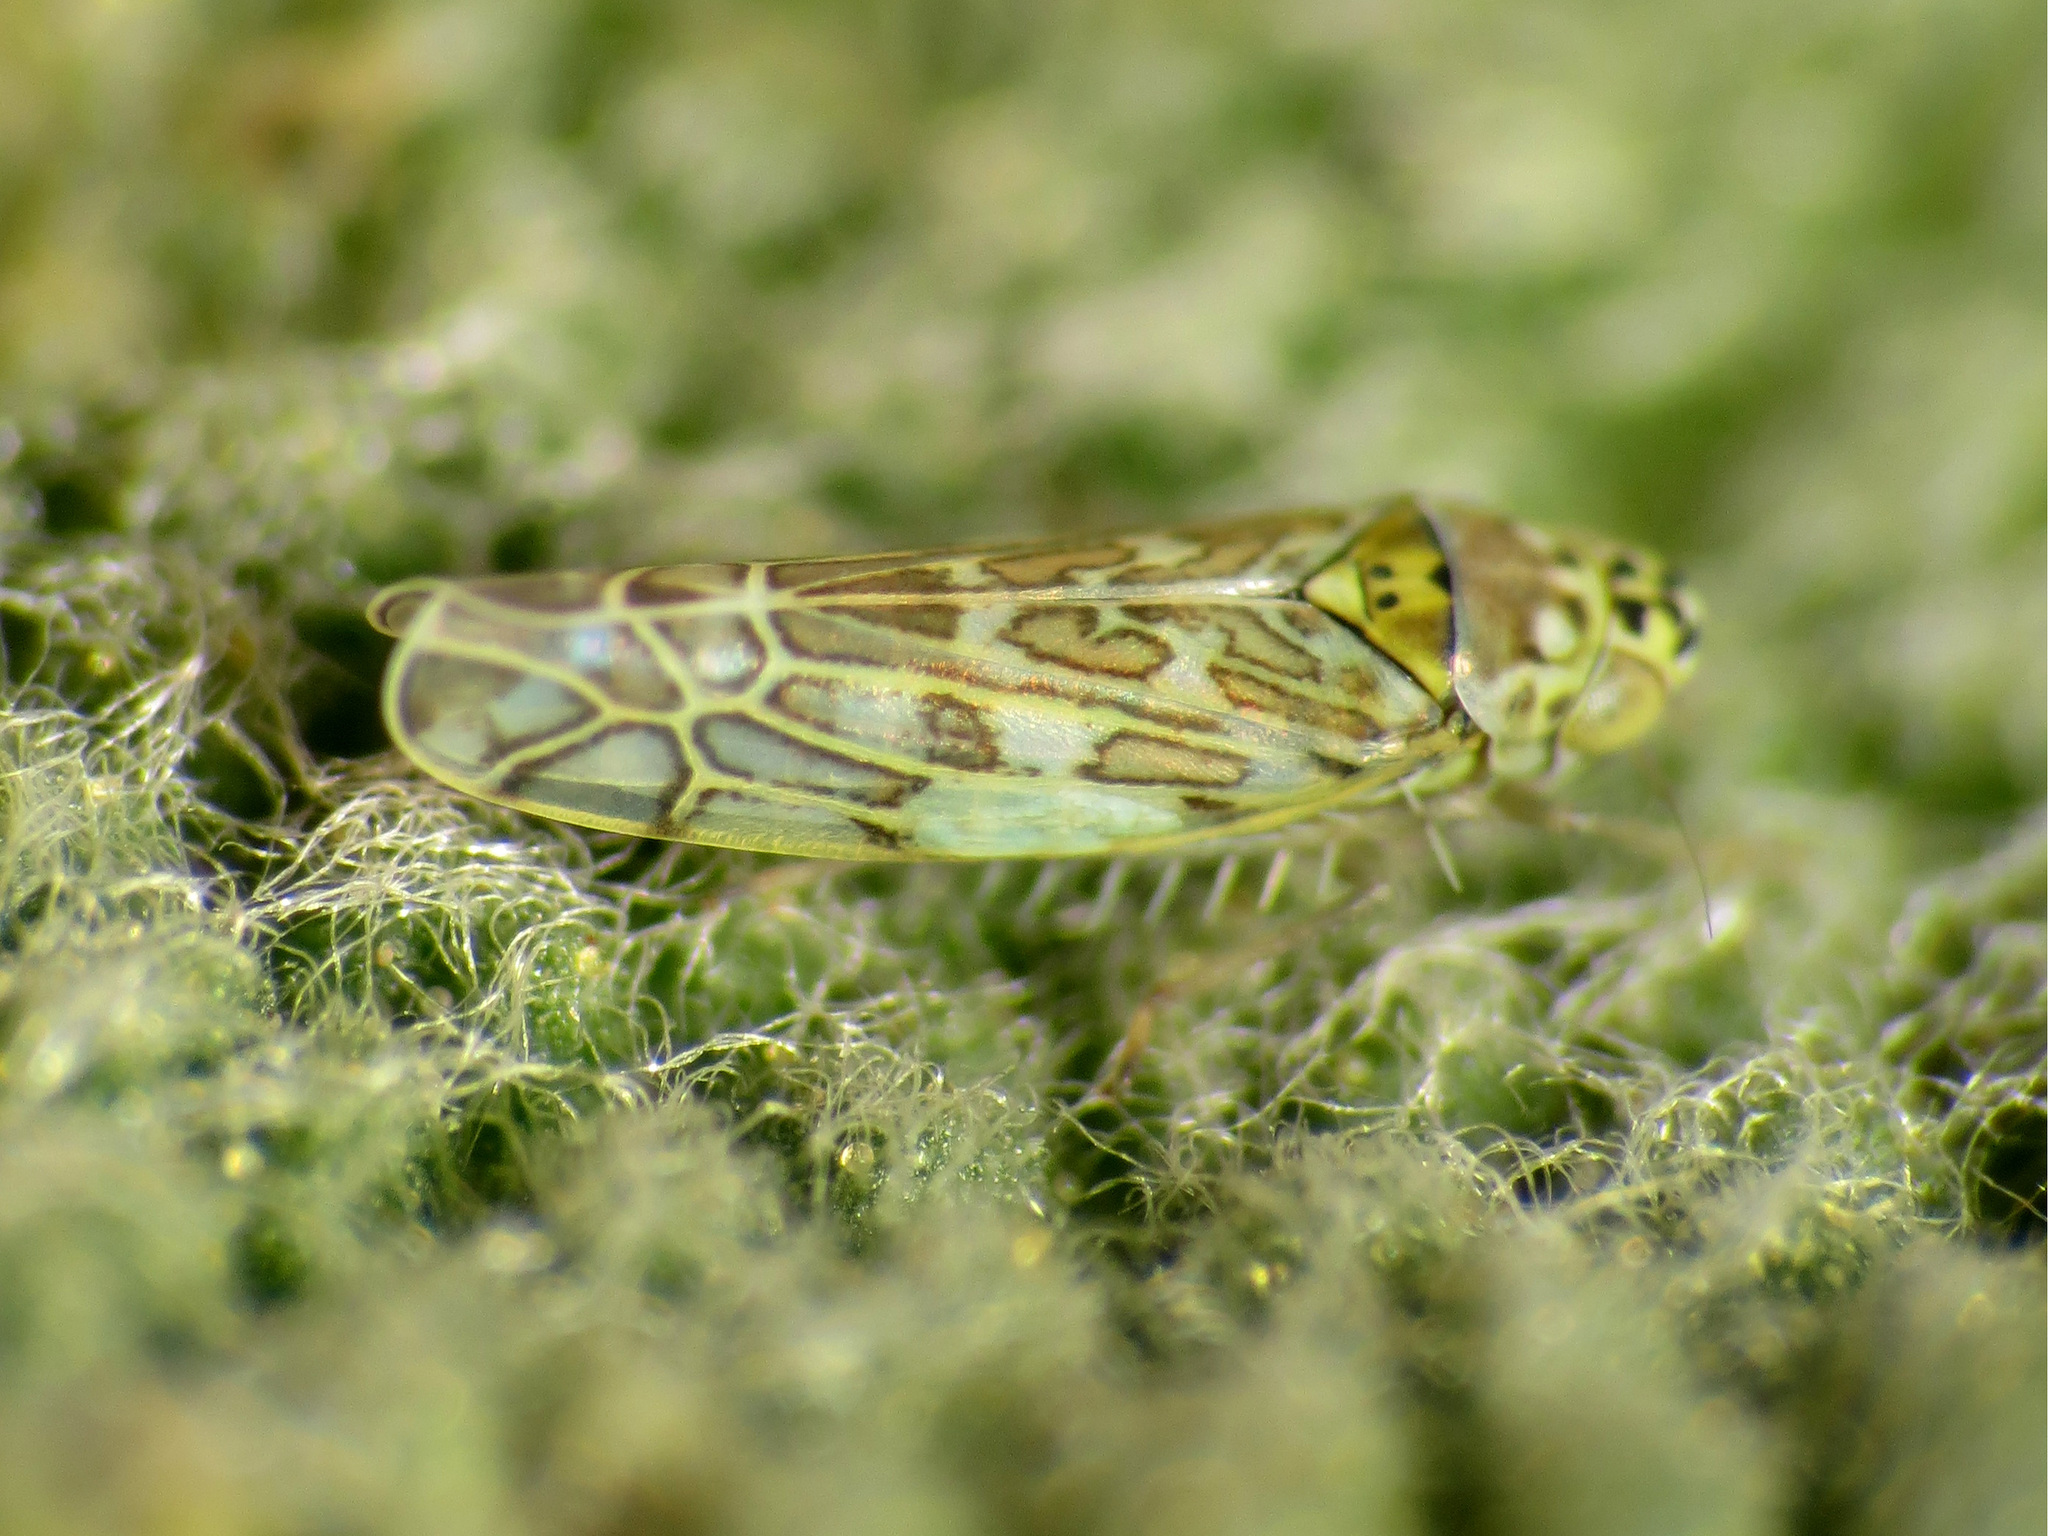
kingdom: Animalia
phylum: Arthropoda
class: Insecta
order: Hemiptera
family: Cicadellidae
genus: Eupteryx
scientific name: Eupteryx decemnotata
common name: Ligurian leafhopper
